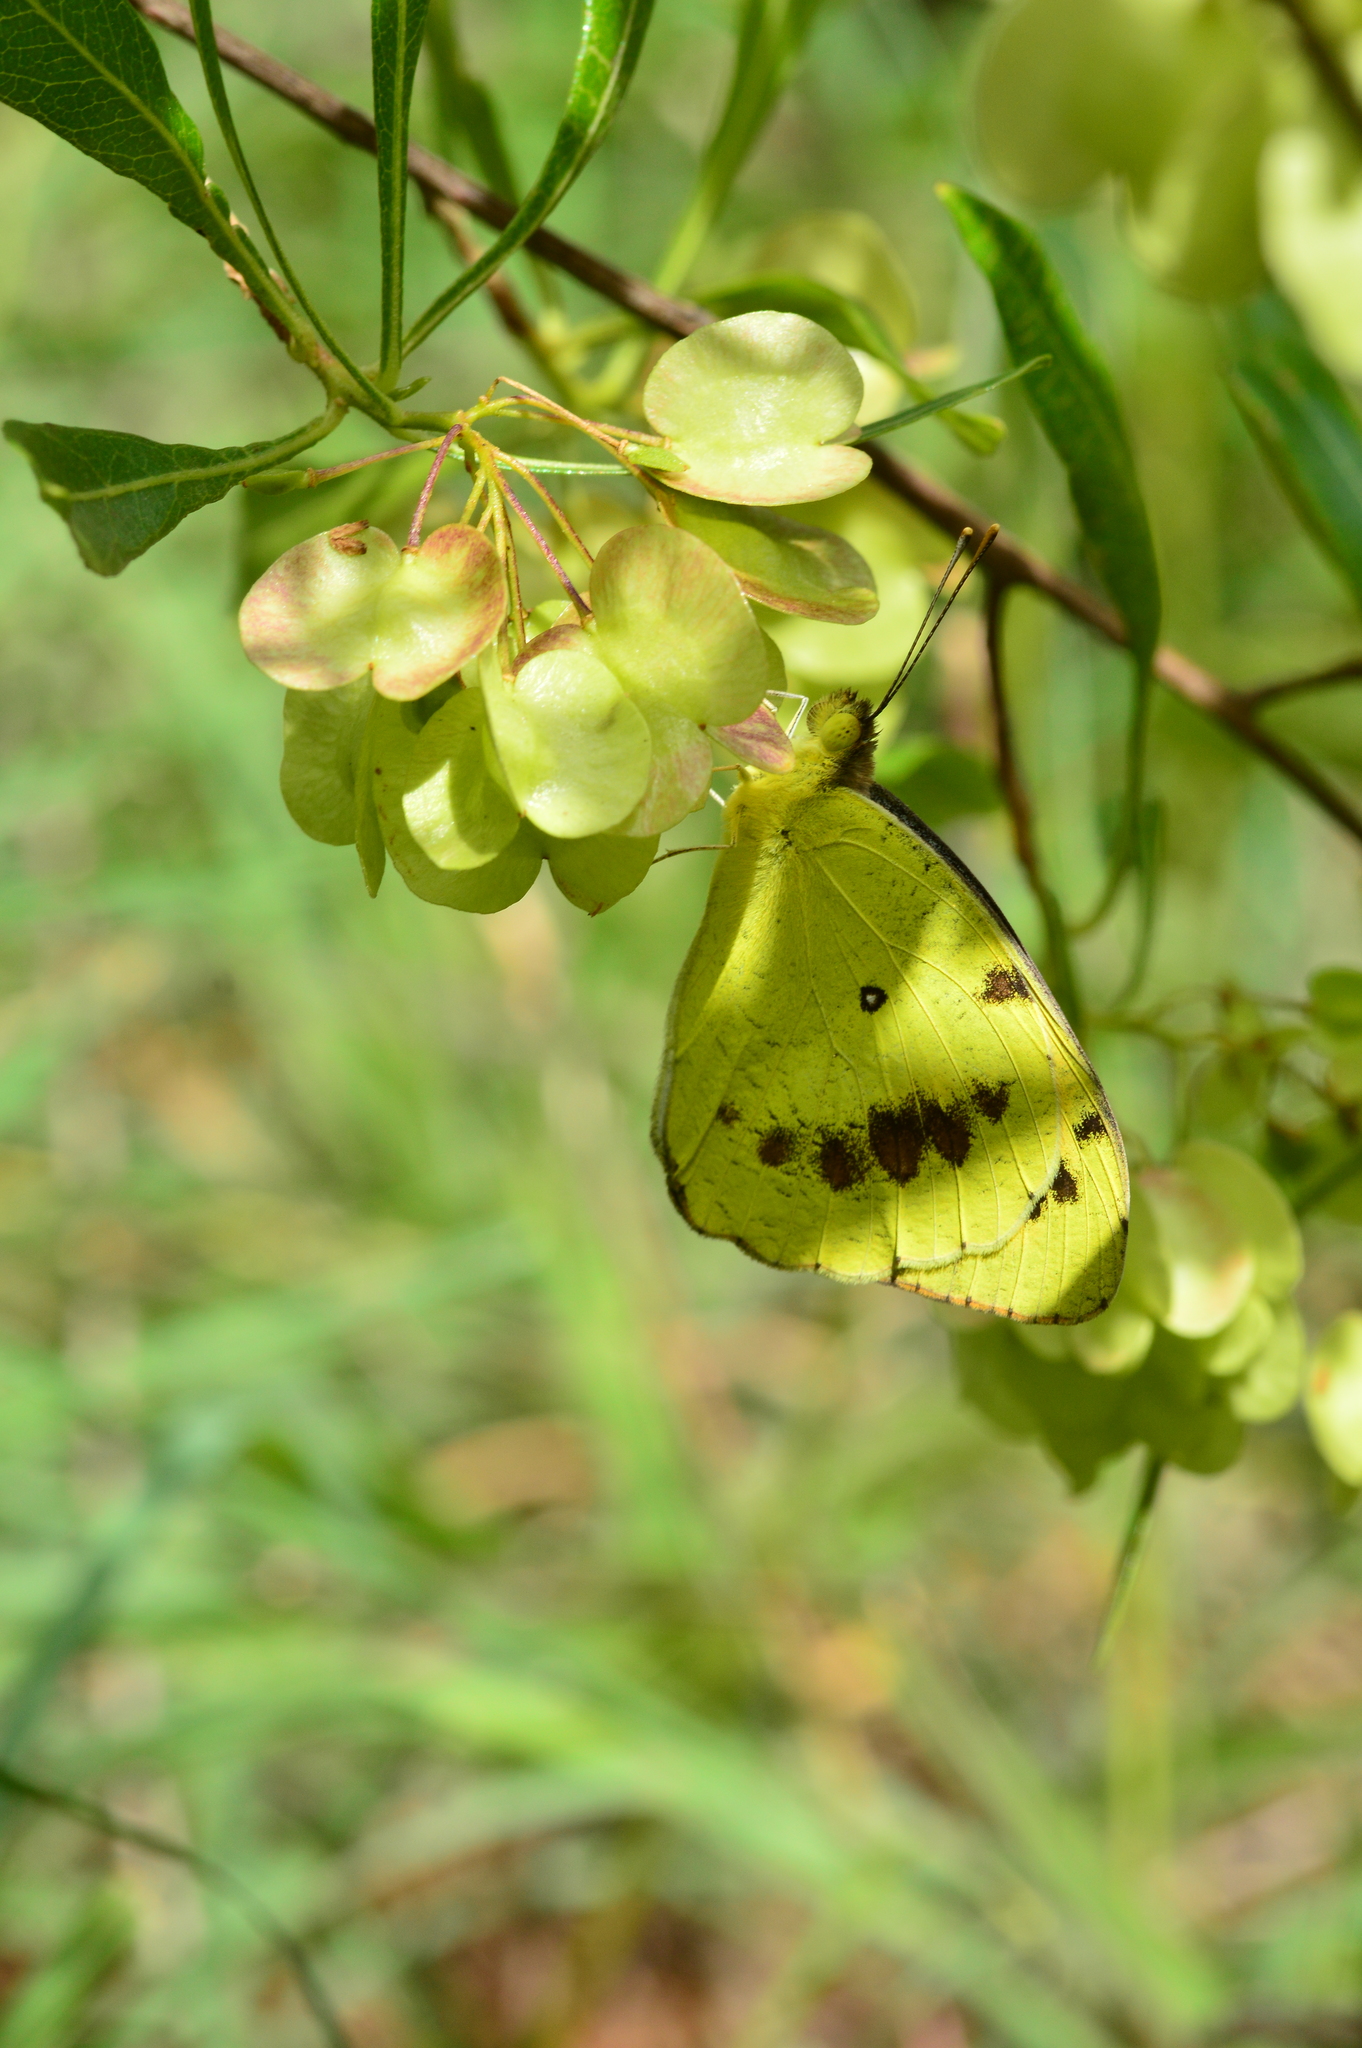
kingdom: Animalia
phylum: Arthropoda
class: Insecta
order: Lepidoptera
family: Pieridae
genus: Ixias
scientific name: Ixias marianne
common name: White orange tip
